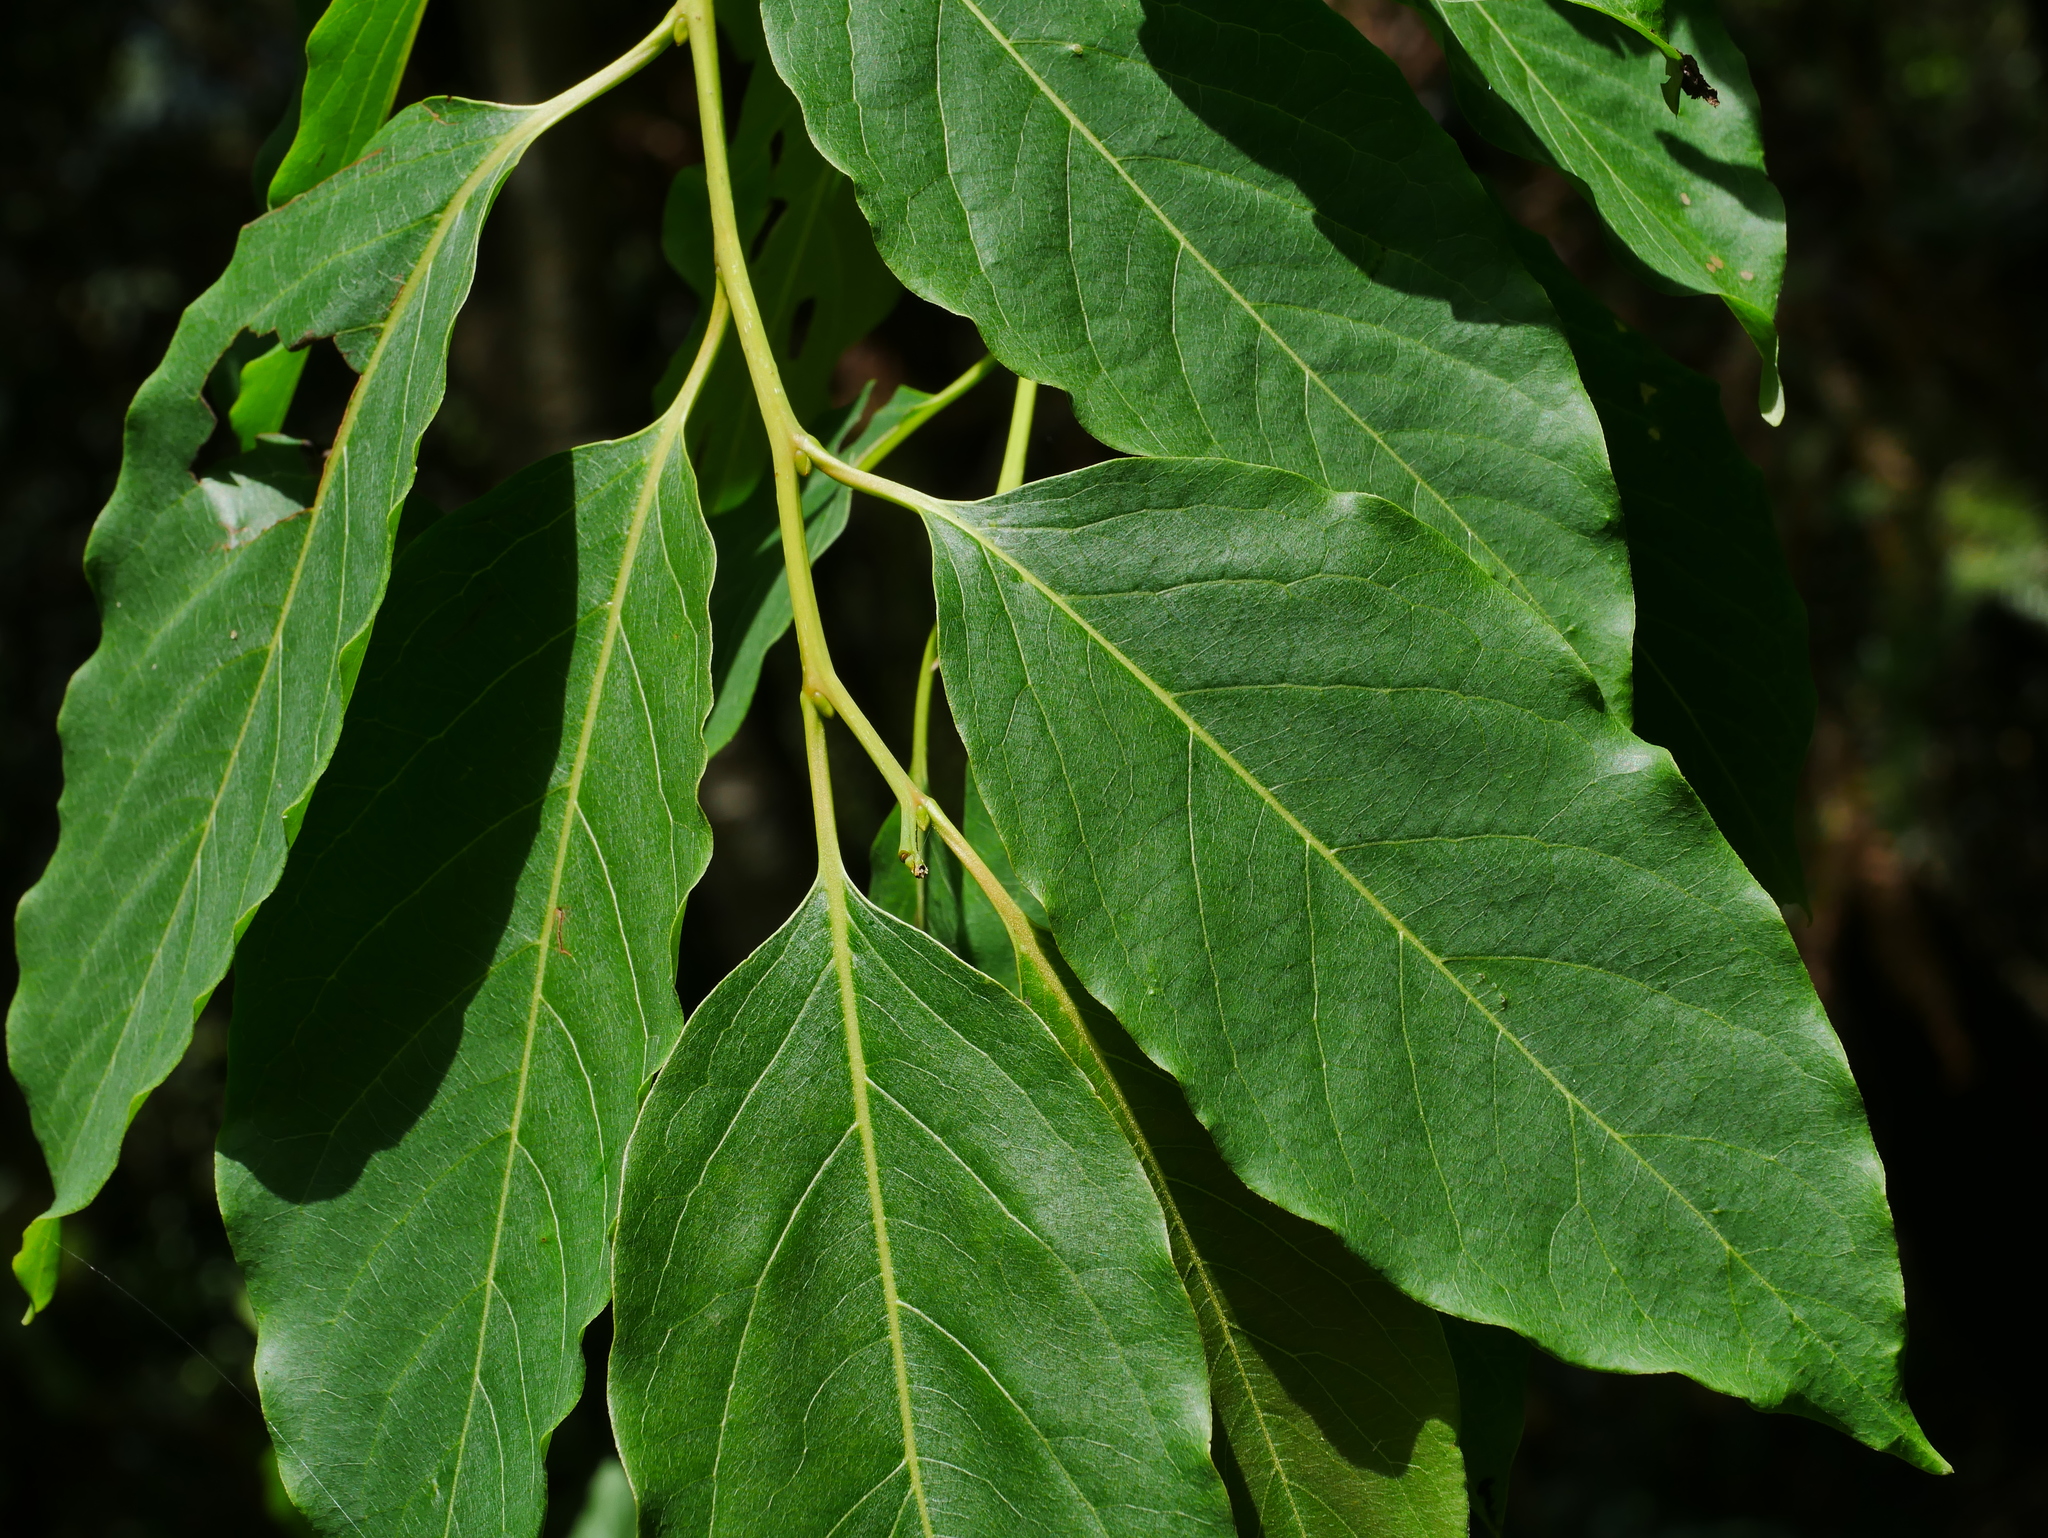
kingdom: Plantae
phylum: Tracheophyta
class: Magnoliopsida
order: Ericales
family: Ebenaceae
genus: Diospyros
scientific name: Diospyros japonica
